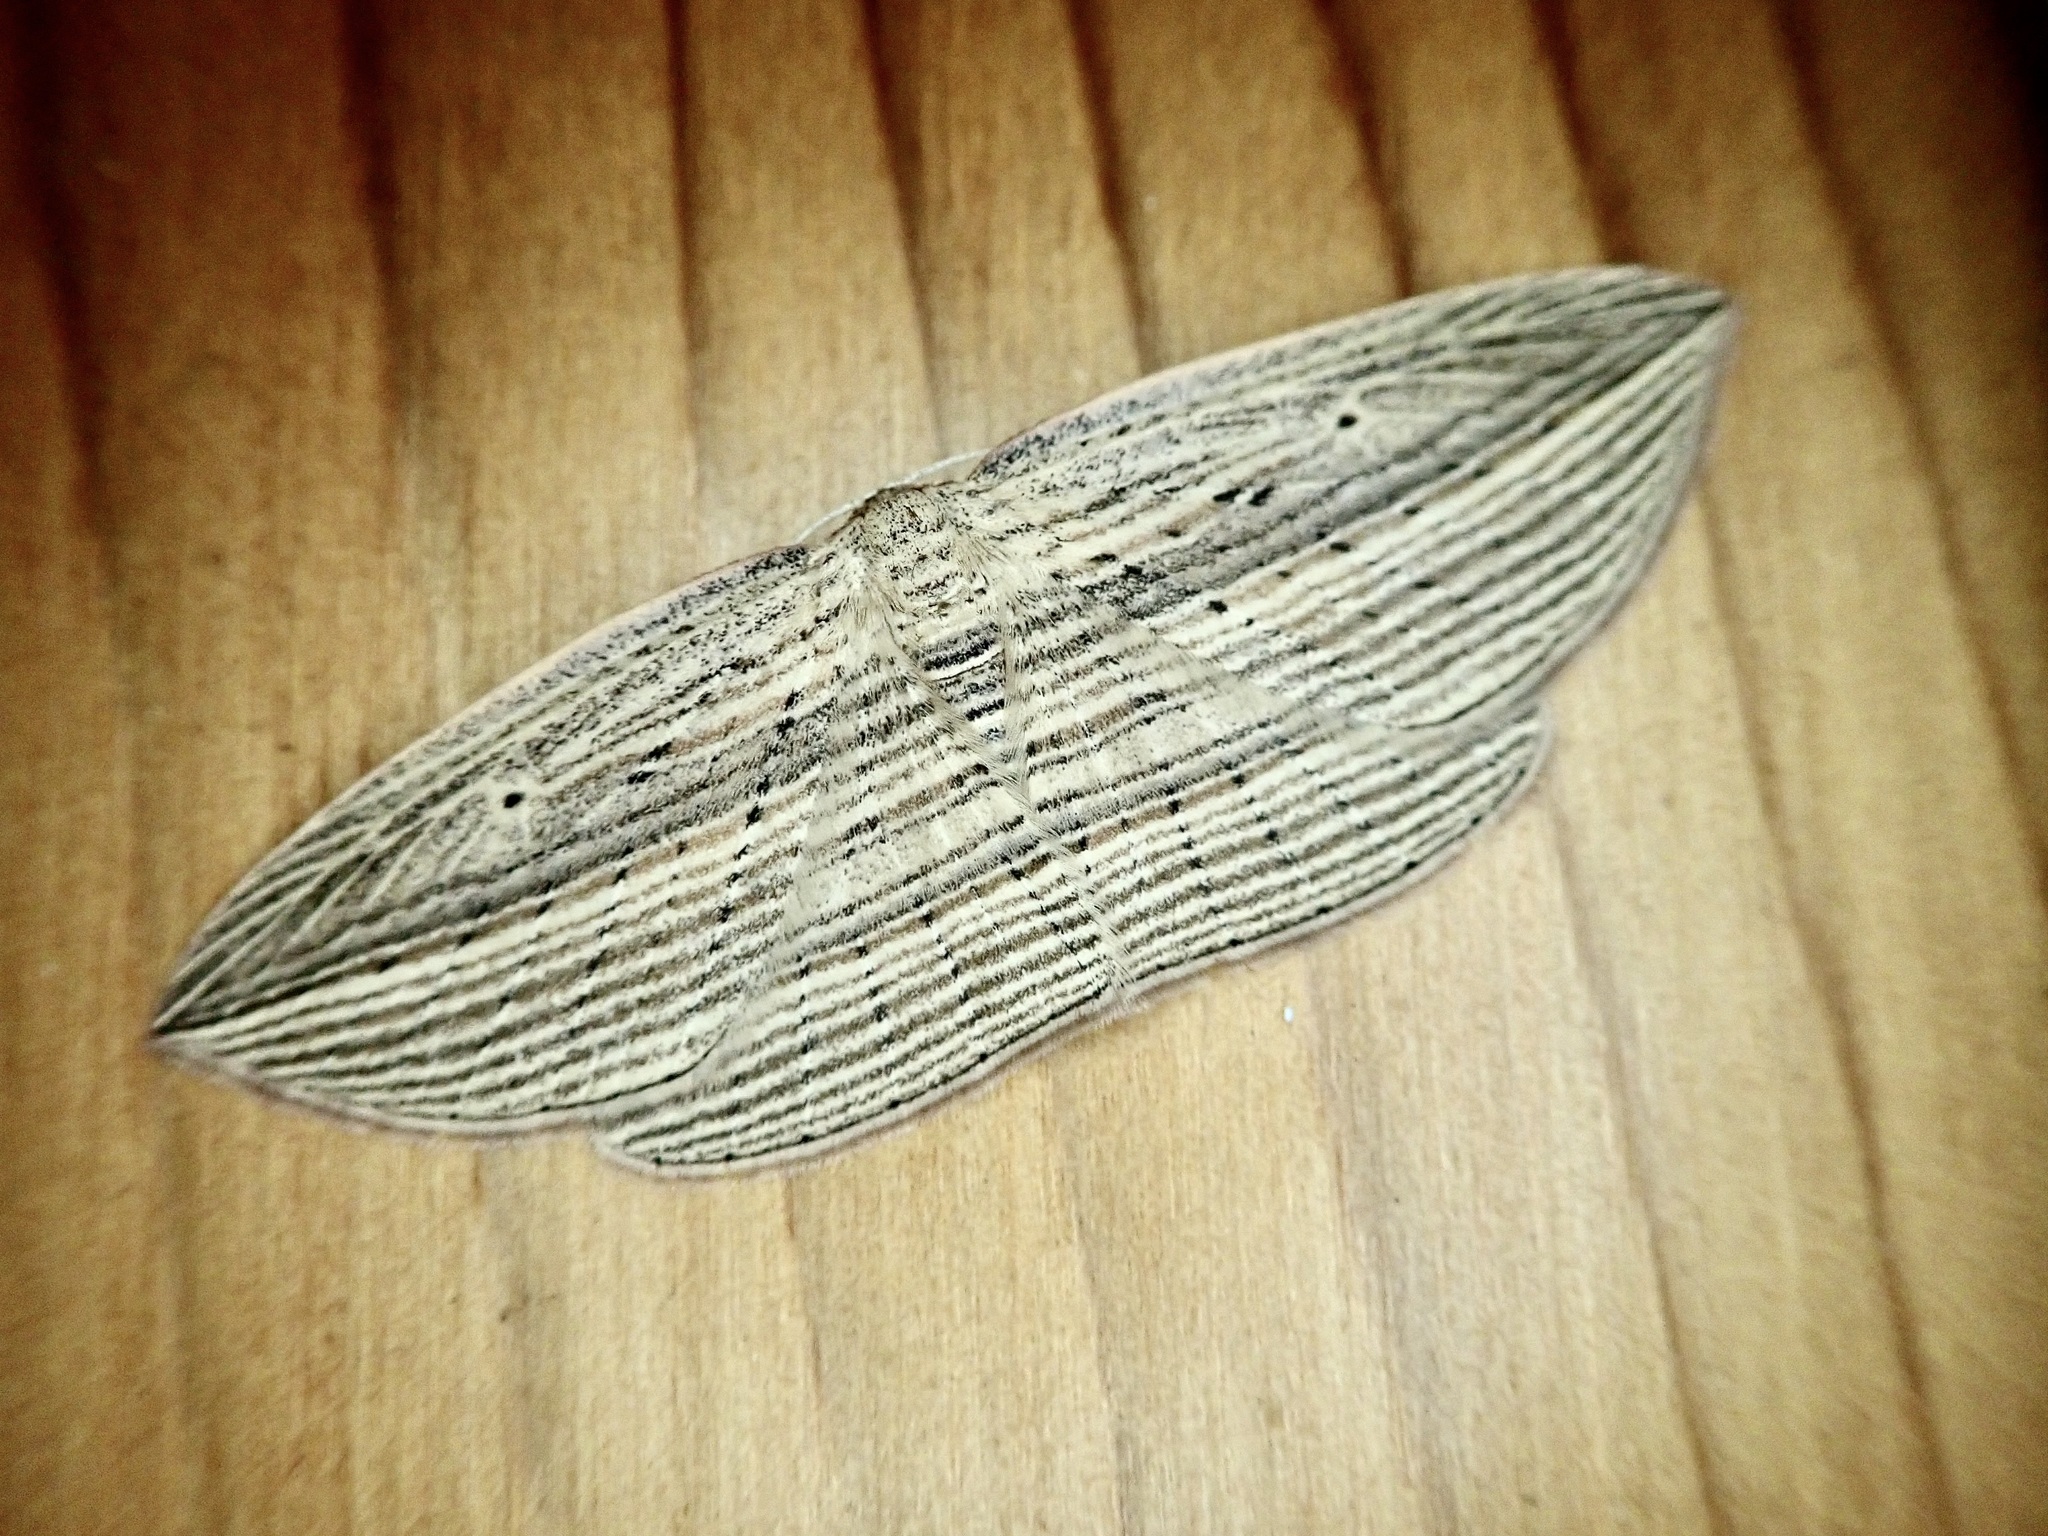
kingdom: Animalia
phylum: Arthropoda
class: Insecta
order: Lepidoptera
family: Geometridae
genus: Epiphryne
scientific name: Epiphryne verriculata
